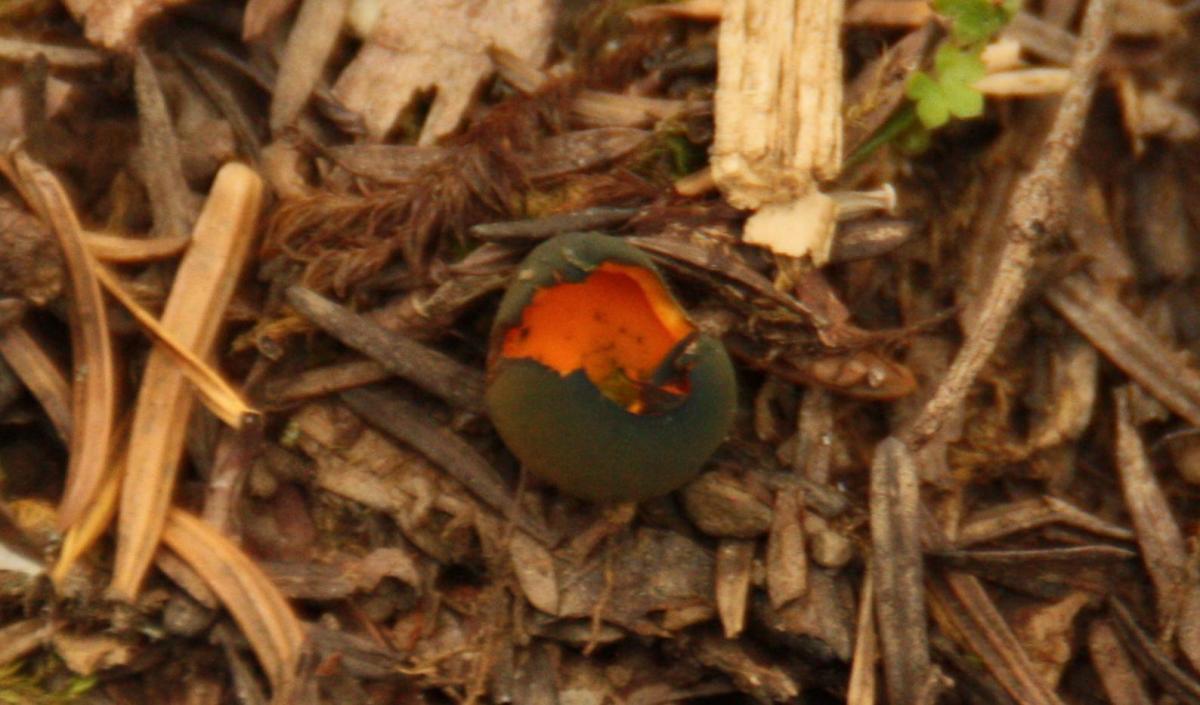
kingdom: Fungi
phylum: Ascomycota
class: Pezizomycetes
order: Pezizales
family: Caloscyphaceae
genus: Caloscypha
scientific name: Caloscypha fulgens
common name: Golden cup
